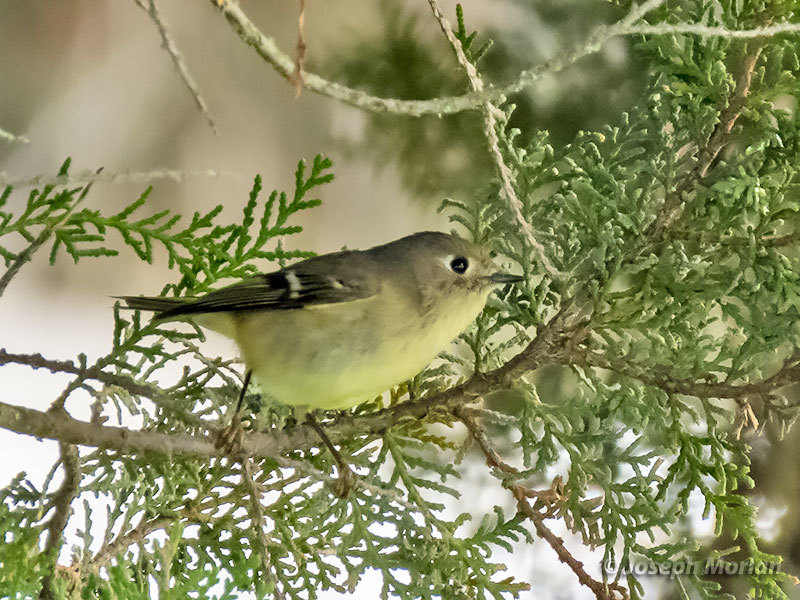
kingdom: Animalia
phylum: Chordata
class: Aves
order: Passeriformes
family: Regulidae
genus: Regulus
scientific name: Regulus calendula
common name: Ruby-crowned kinglet
